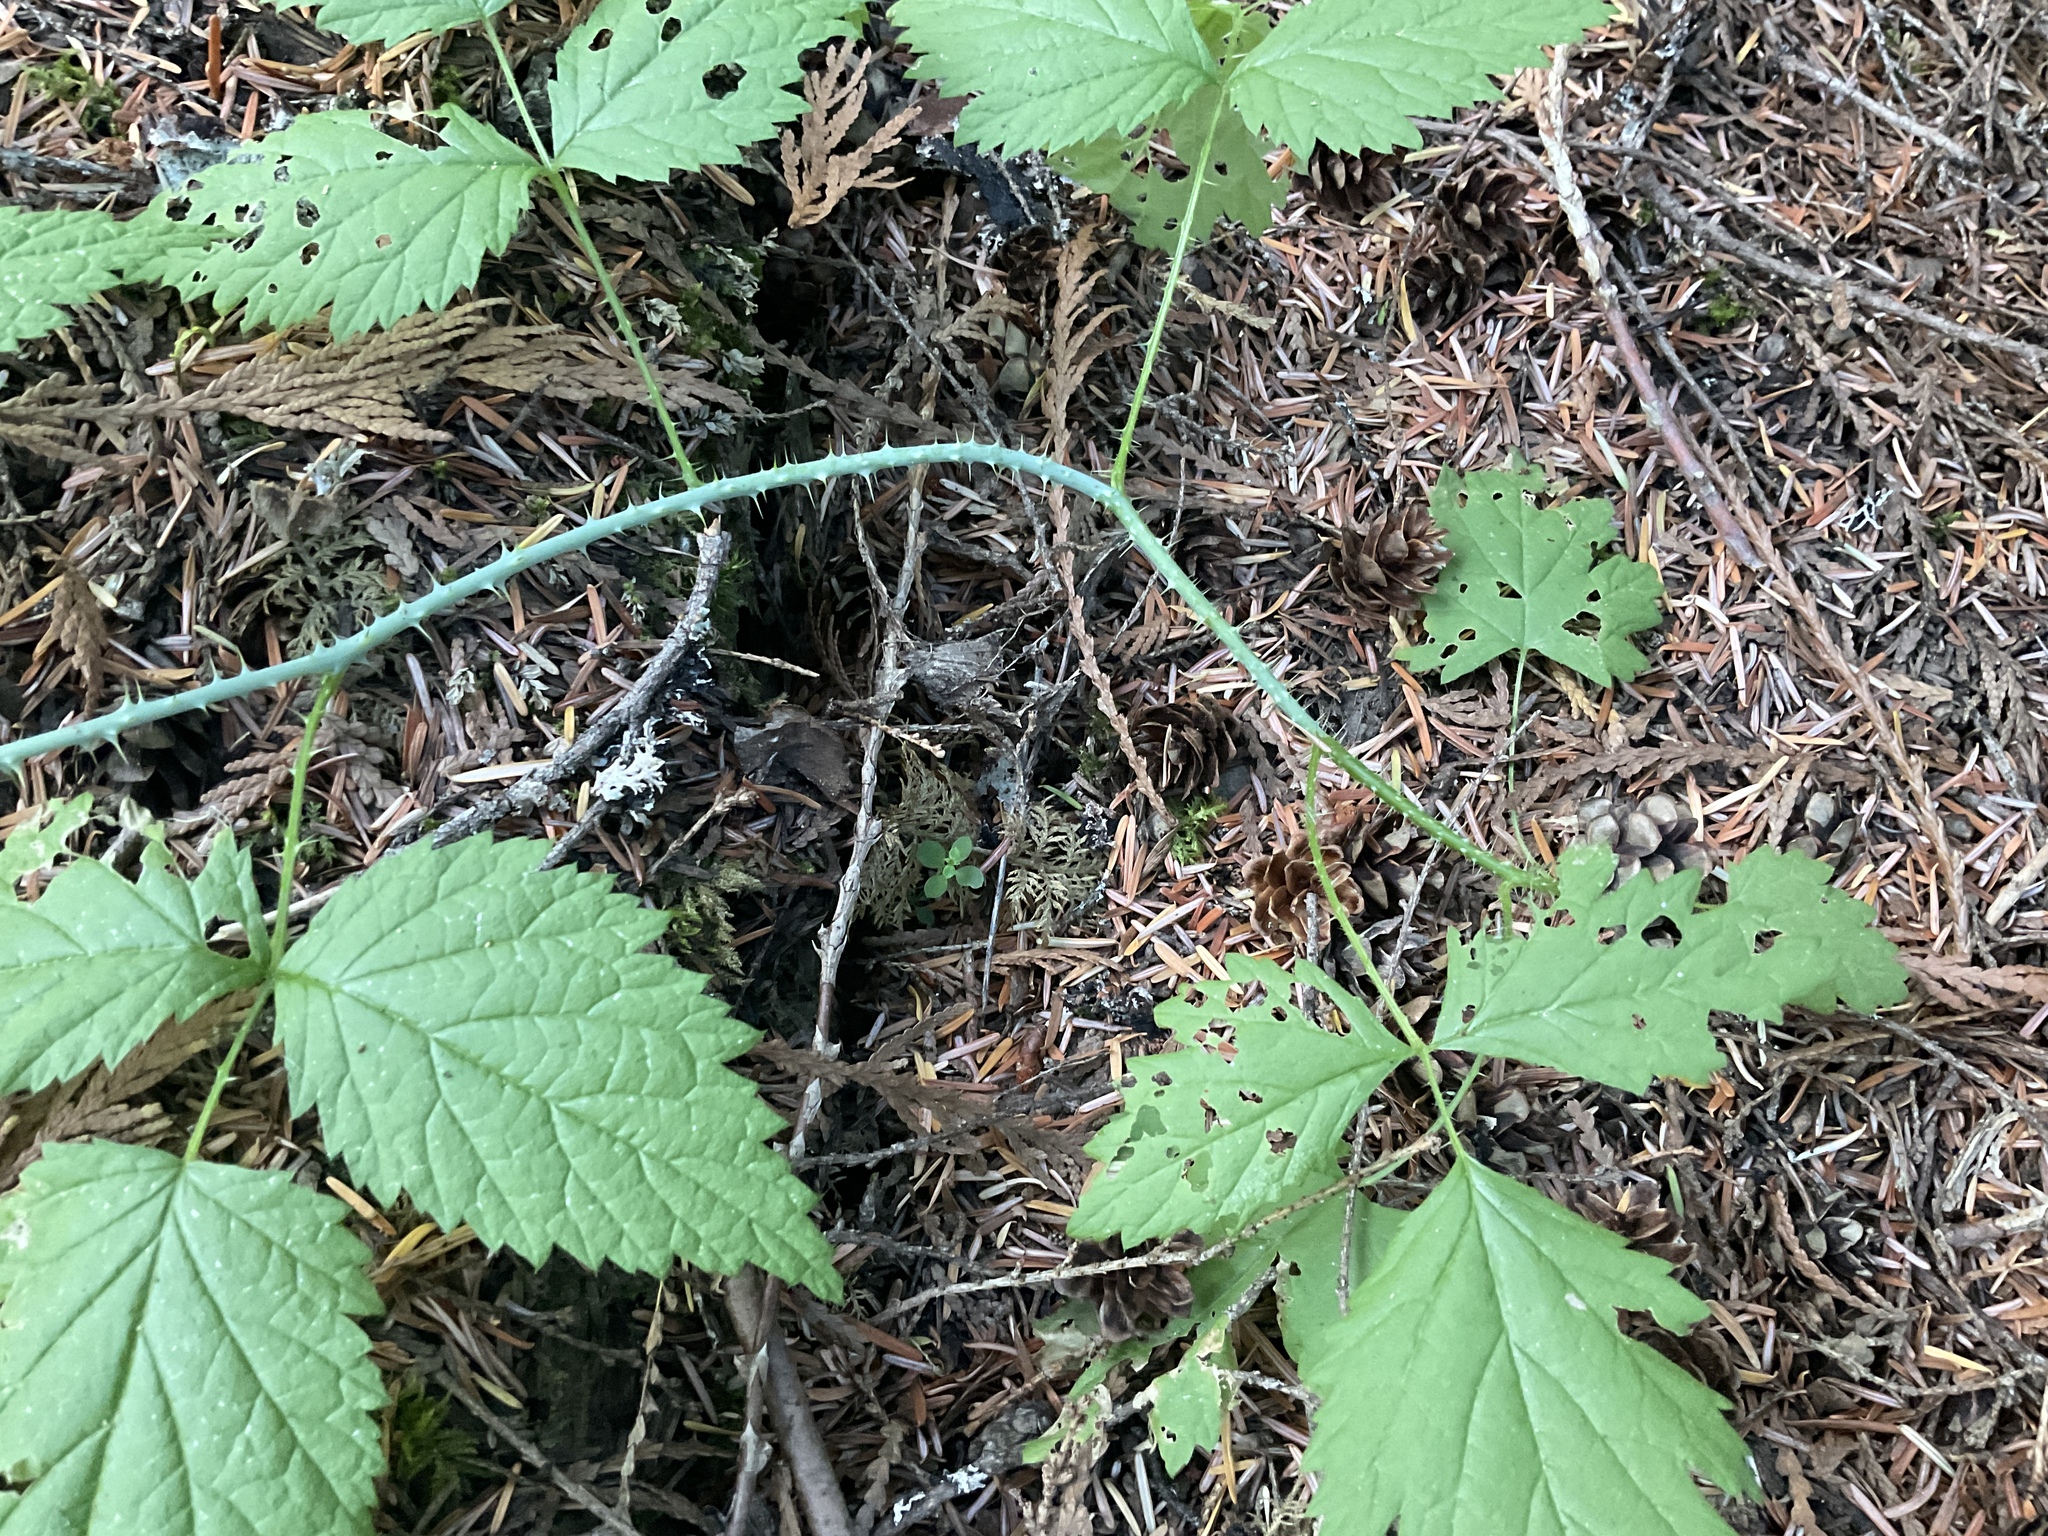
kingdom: Plantae
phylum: Tracheophyta
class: Magnoliopsida
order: Rosales
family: Rosaceae
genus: Rubus
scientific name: Rubus leucodermis
